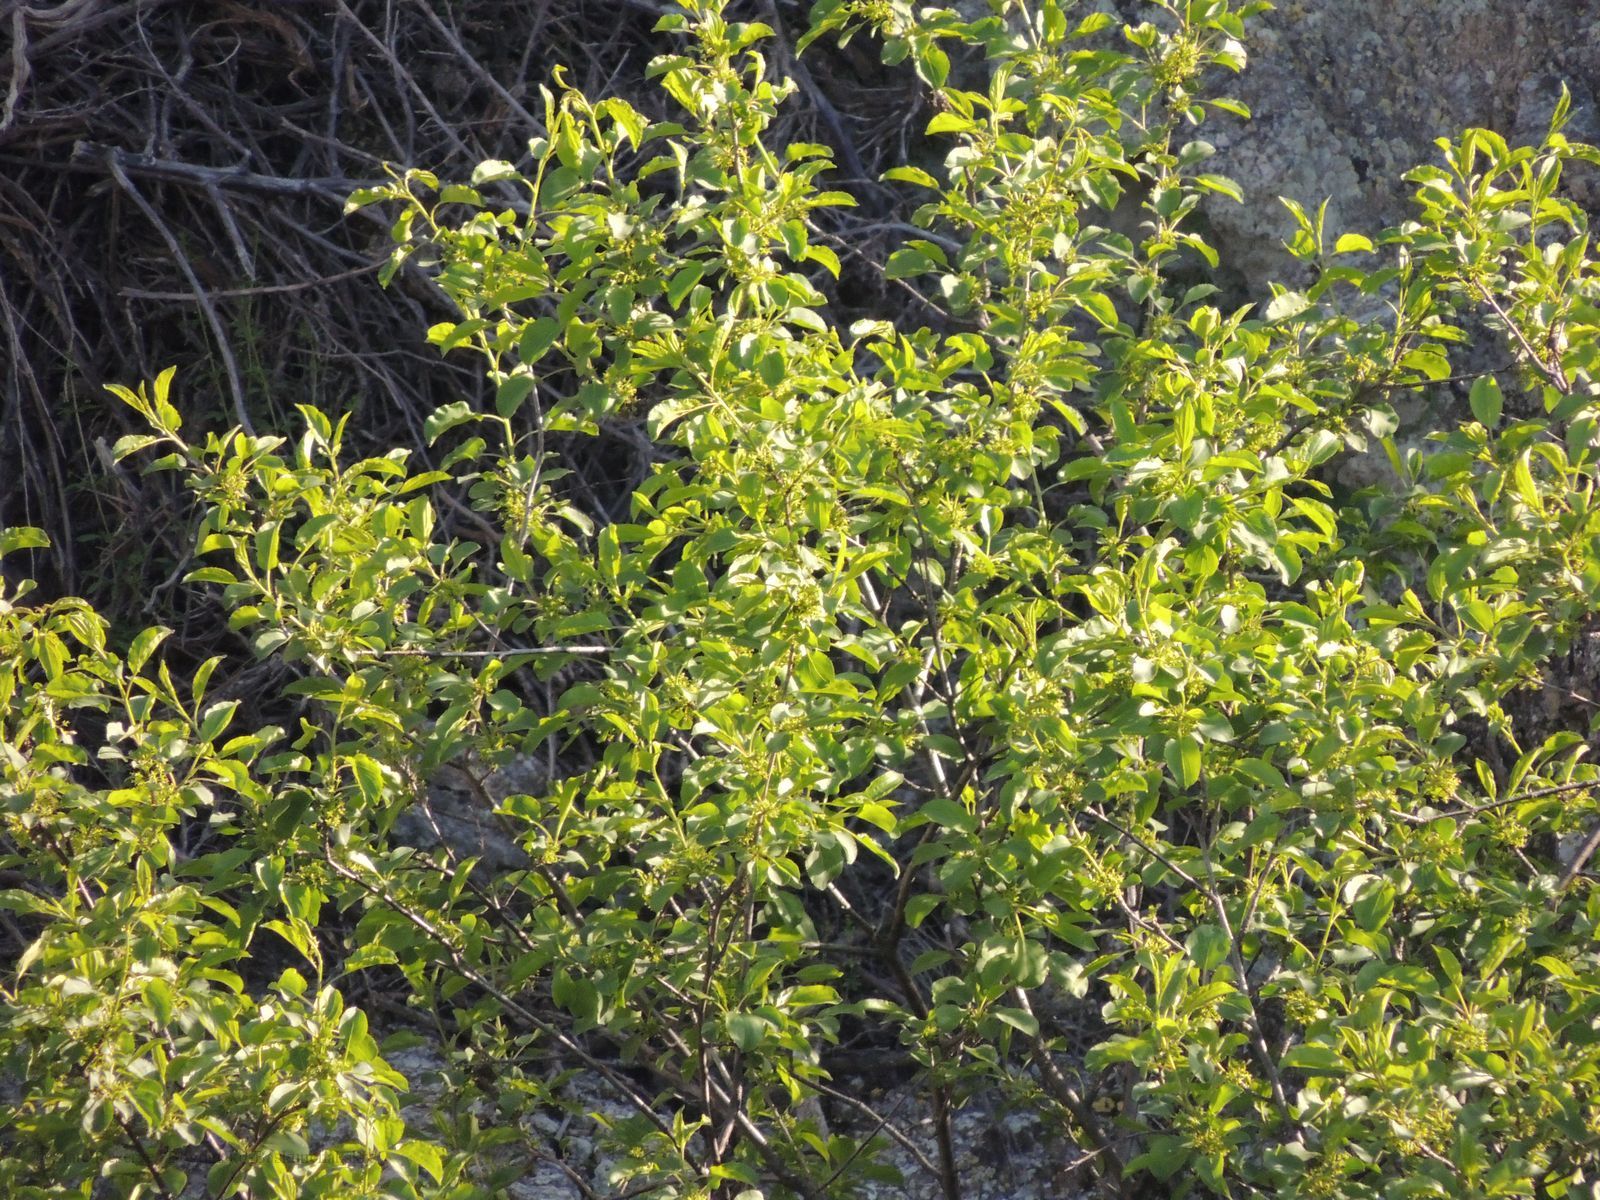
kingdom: Plantae
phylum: Tracheophyta
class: Magnoliopsida
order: Rosales
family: Rhamnaceae
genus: Rhamnus
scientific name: Rhamnus cathartica
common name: Common buckthorn
